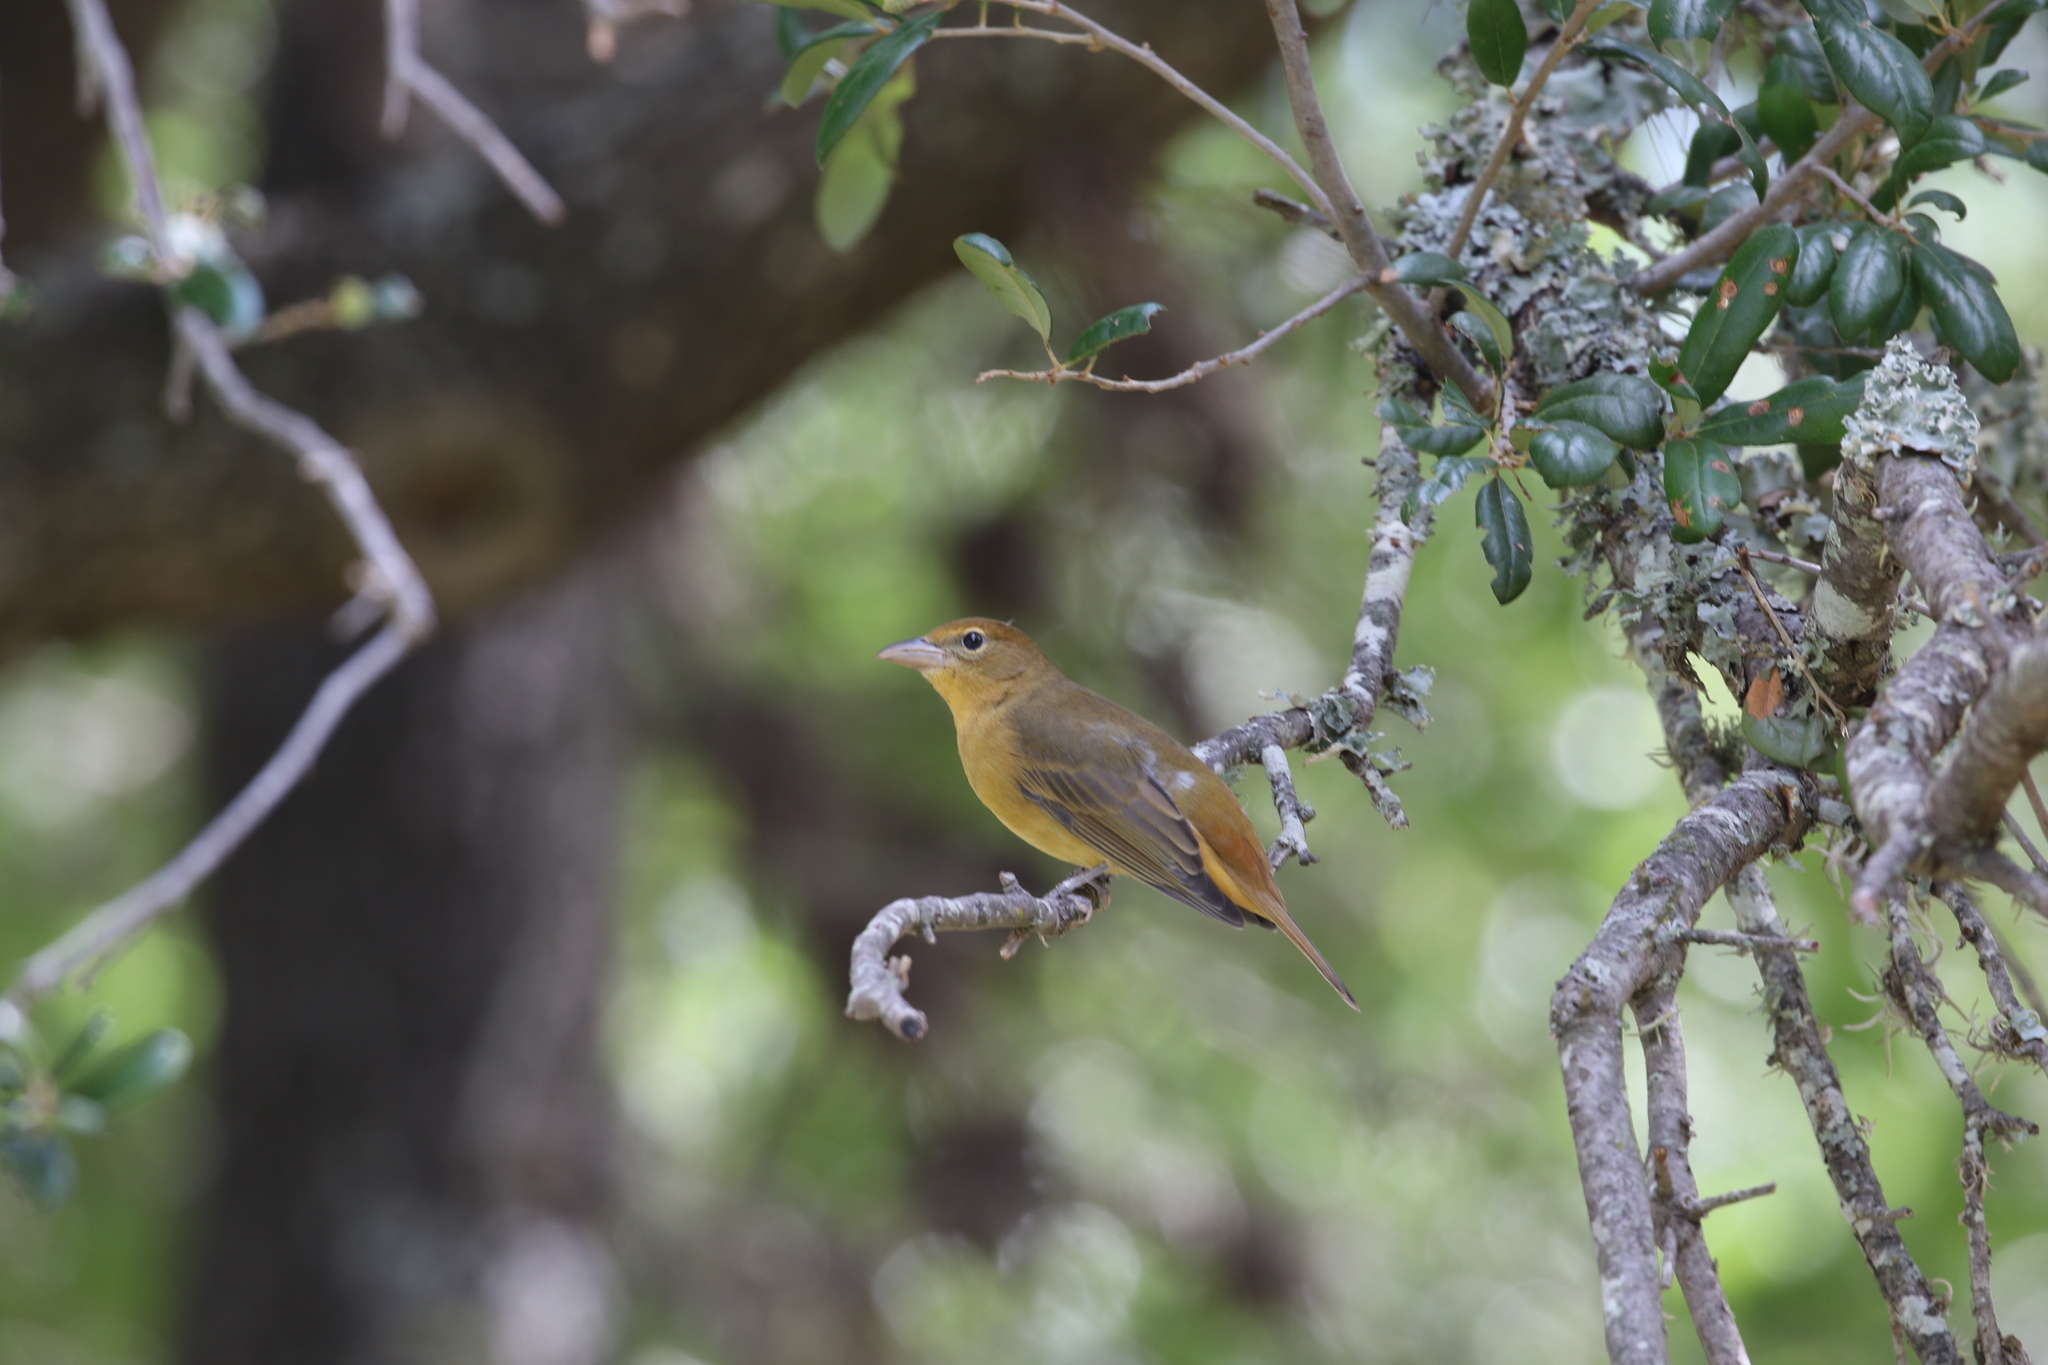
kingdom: Animalia
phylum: Chordata
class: Aves
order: Passeriformes
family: Cardinalidae
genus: Piranga
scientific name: Piranga rubra
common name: Summer tanager
